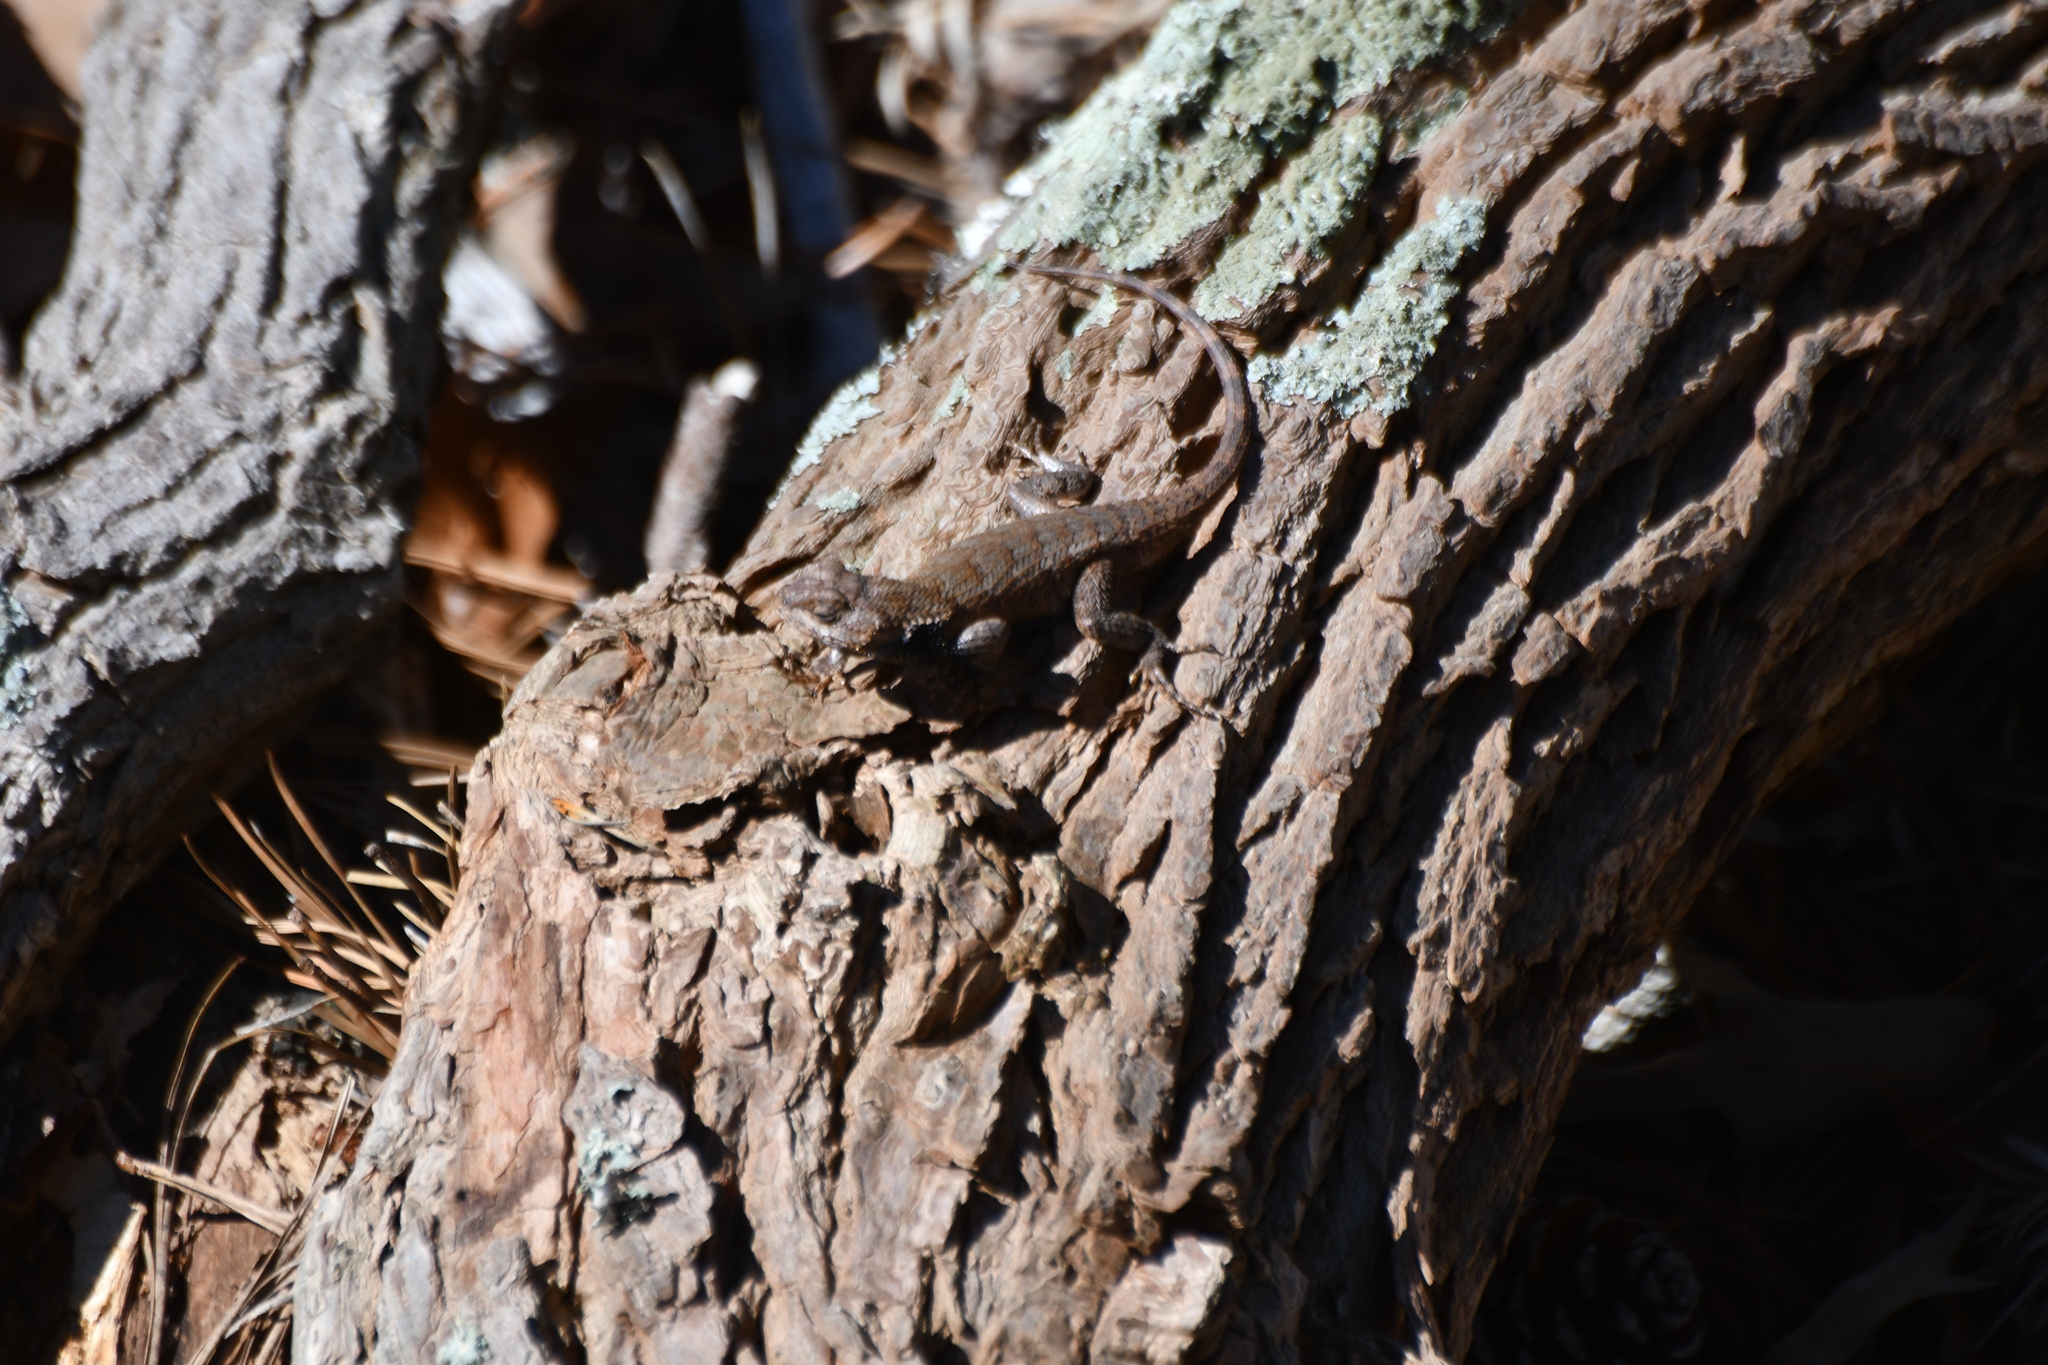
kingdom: Animalia
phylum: Chordata
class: Squamata
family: Phrynosomatidae
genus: Sceloporus
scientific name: Sceloporus undulatus
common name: Eastern fence lizard
